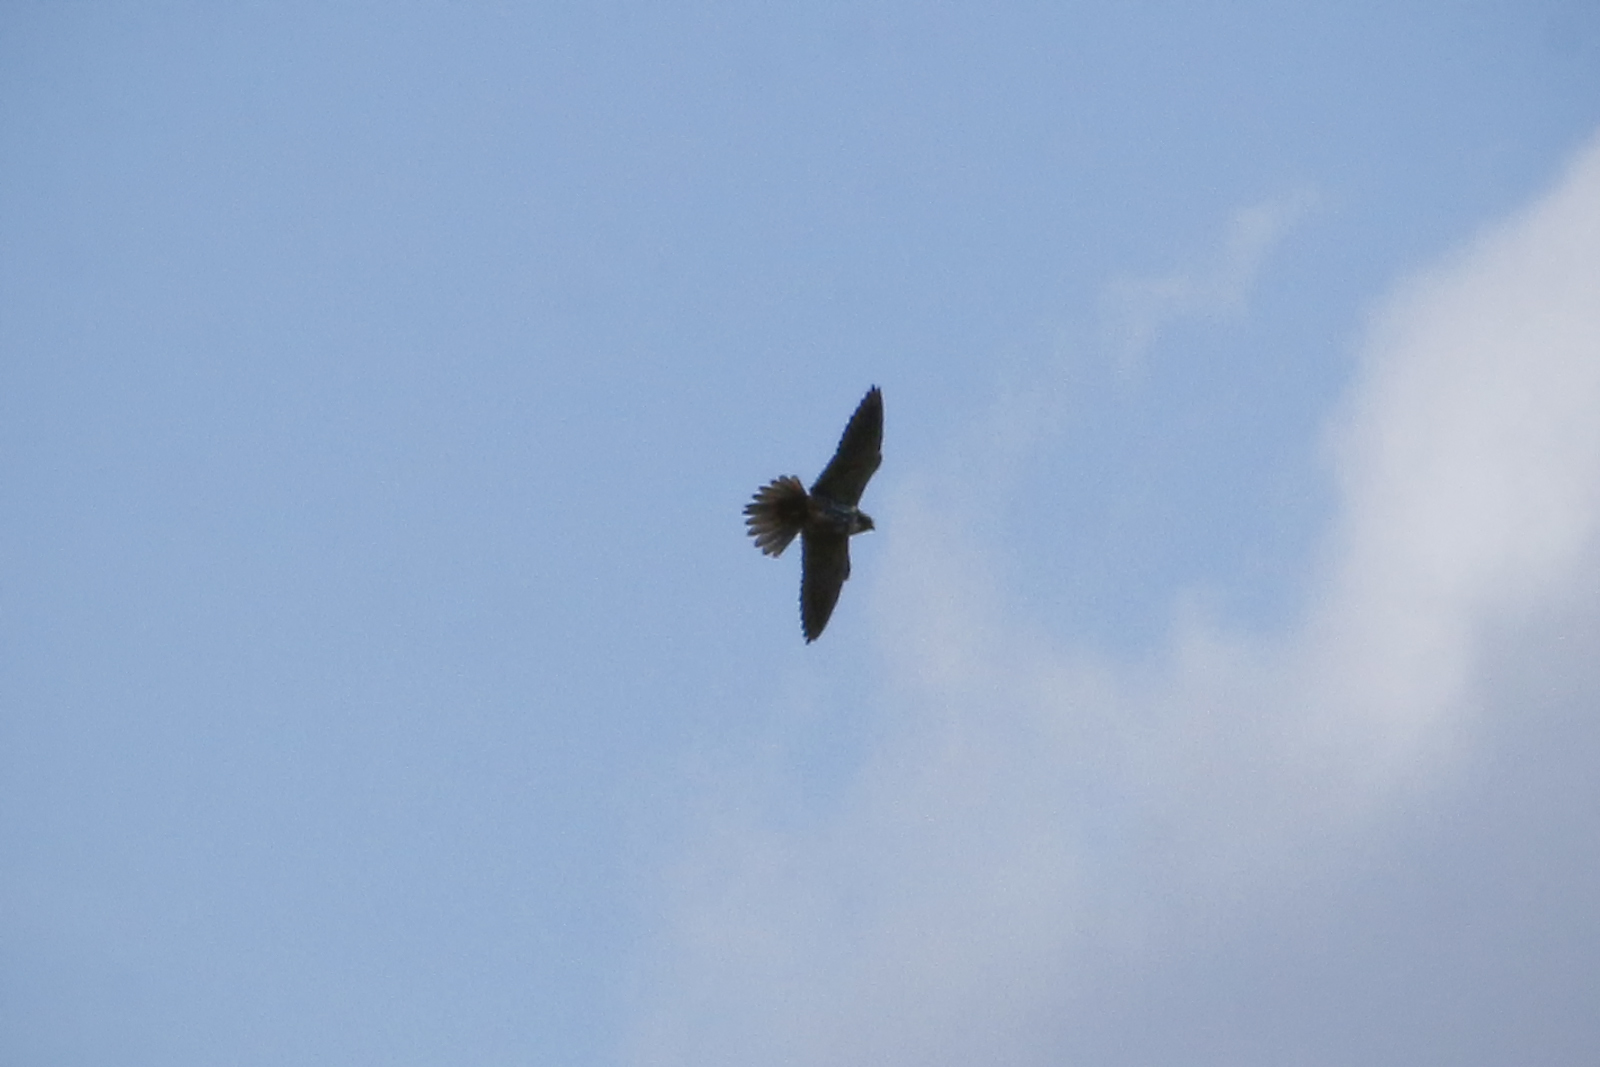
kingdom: Animalia
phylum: Chordata
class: Aves
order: Falconiformes
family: Falconidae
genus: Falco
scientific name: Falco subbuteo
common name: Eurasian hobby
